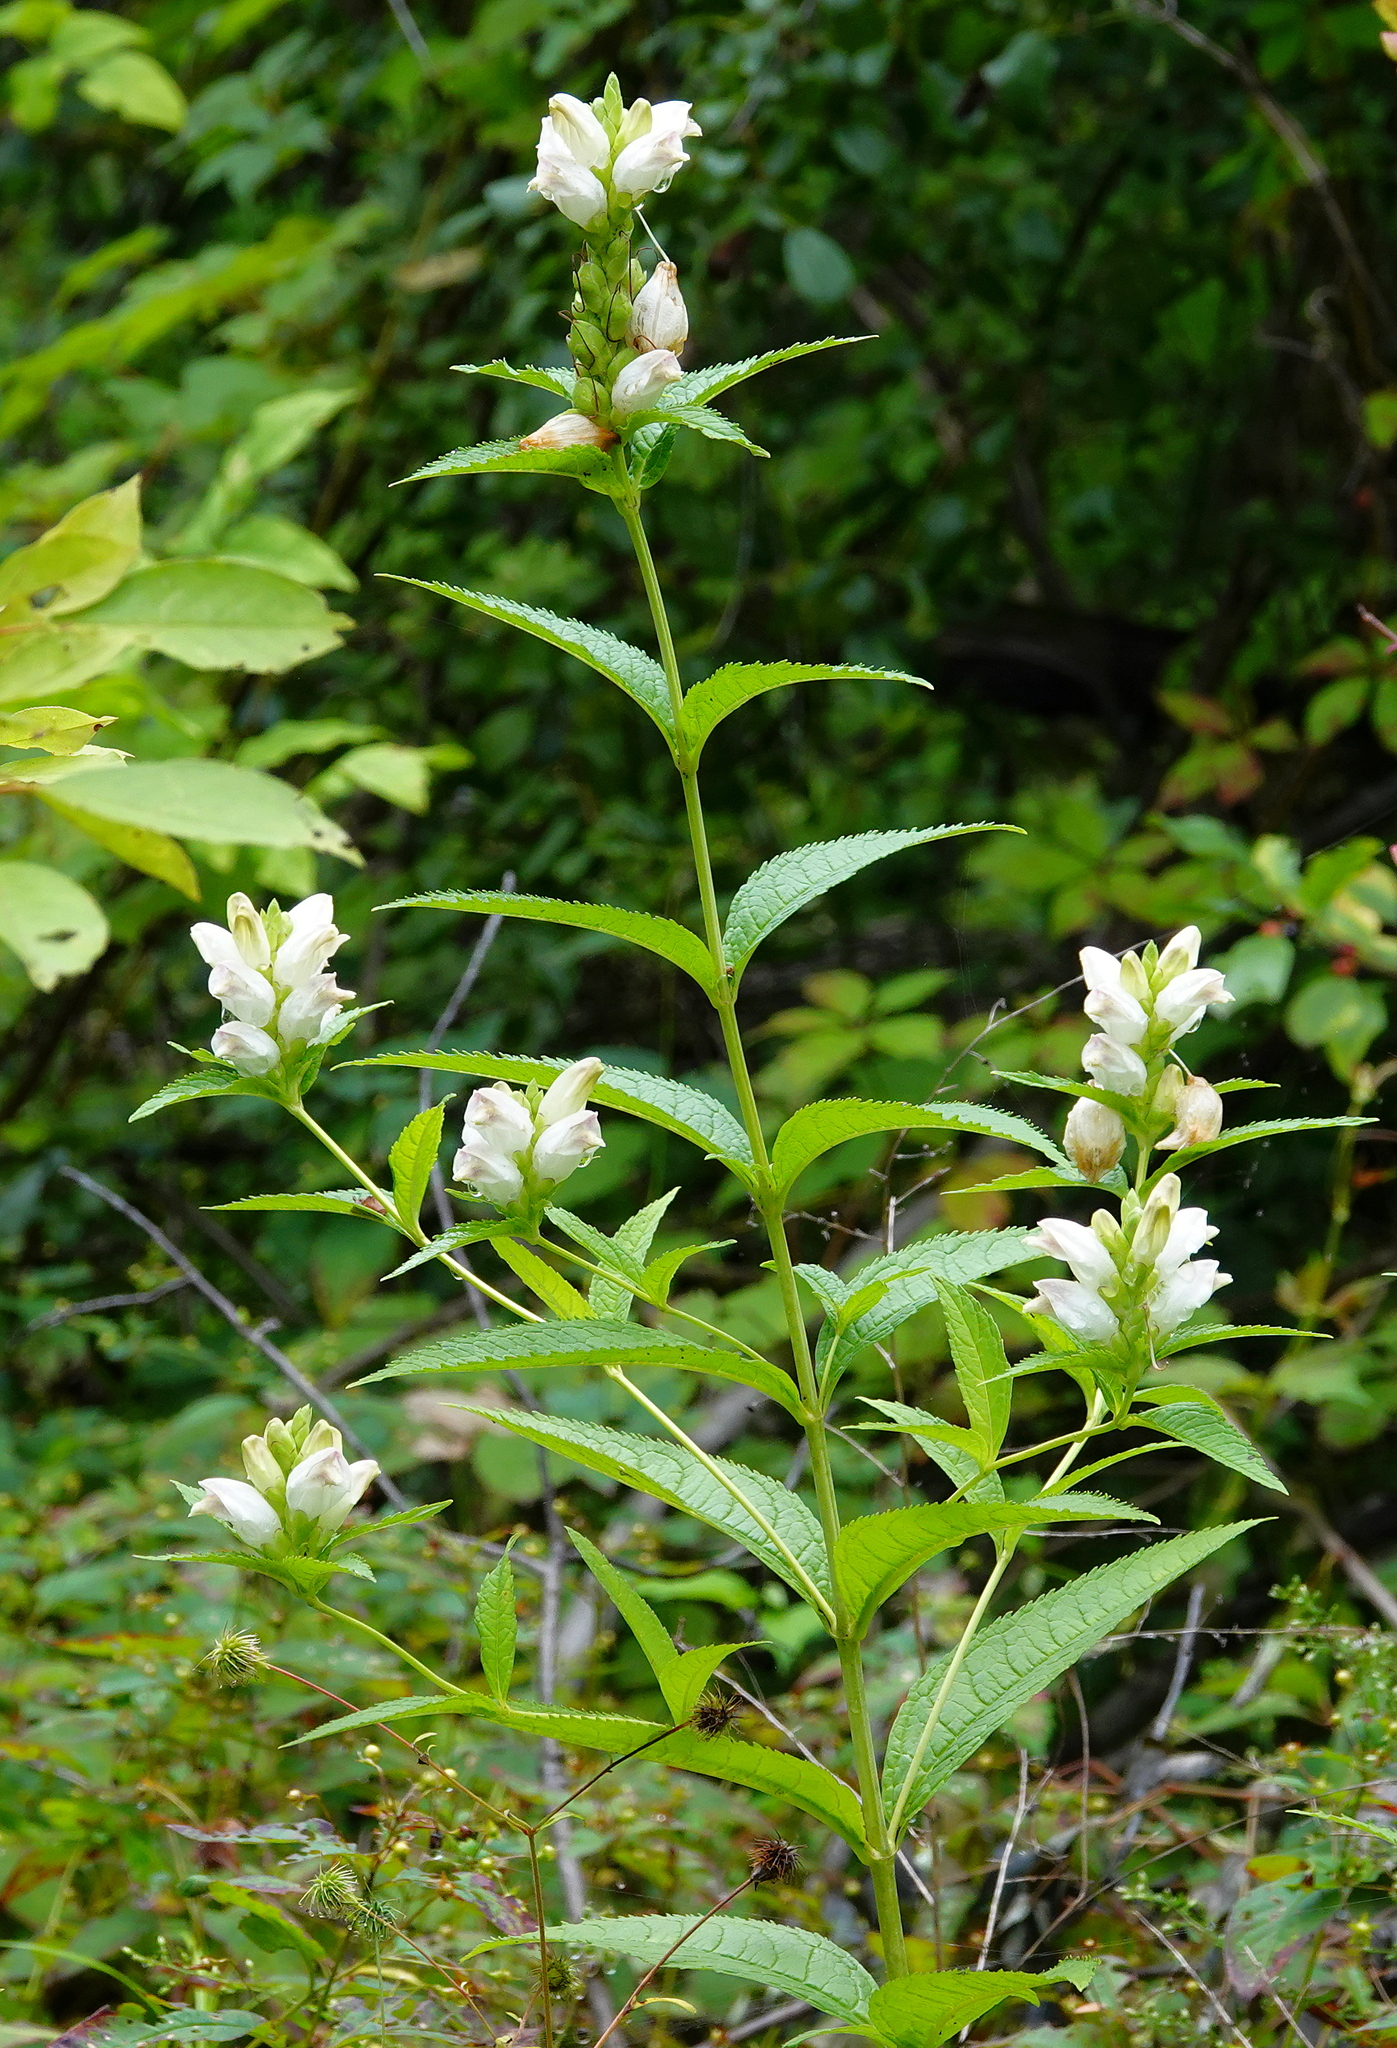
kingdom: Plantae
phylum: Tracheophyta
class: Magnoliopsida
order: Lamiales
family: Plantaginaceae
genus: Chelone
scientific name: Chelone glabra
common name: Snakehead
